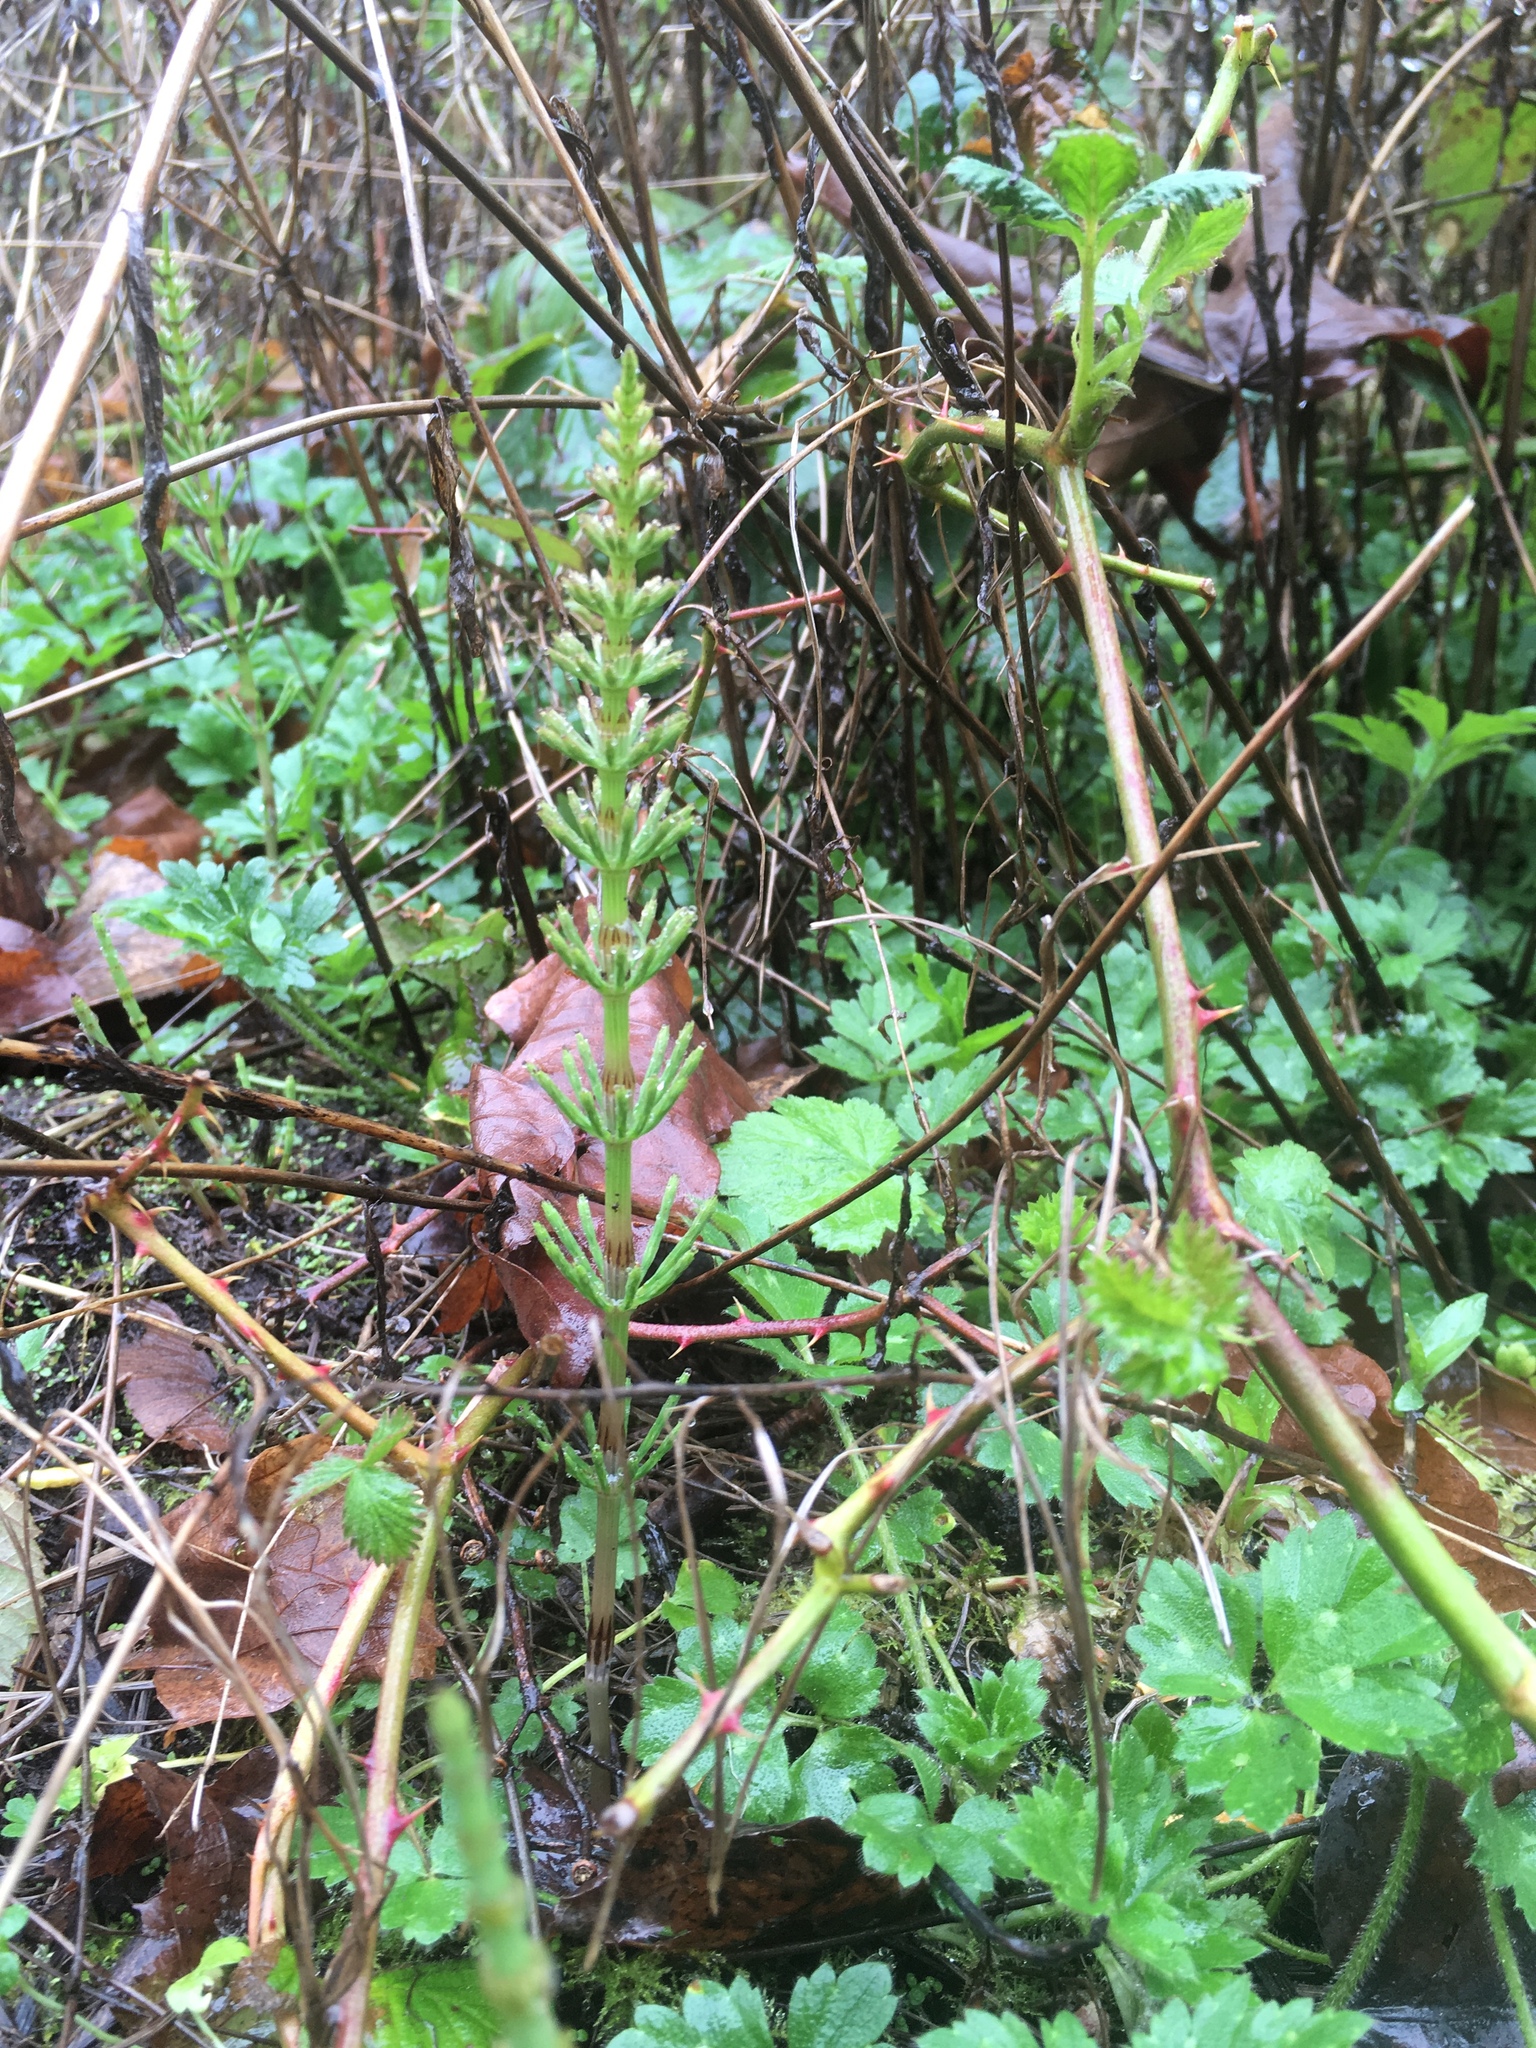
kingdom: Plantae
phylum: Tracheophyta
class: Polypodiopsida
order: Equisetales
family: Equisetaceae
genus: Equisetum
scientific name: Equisetum arvense
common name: Field horsetail
